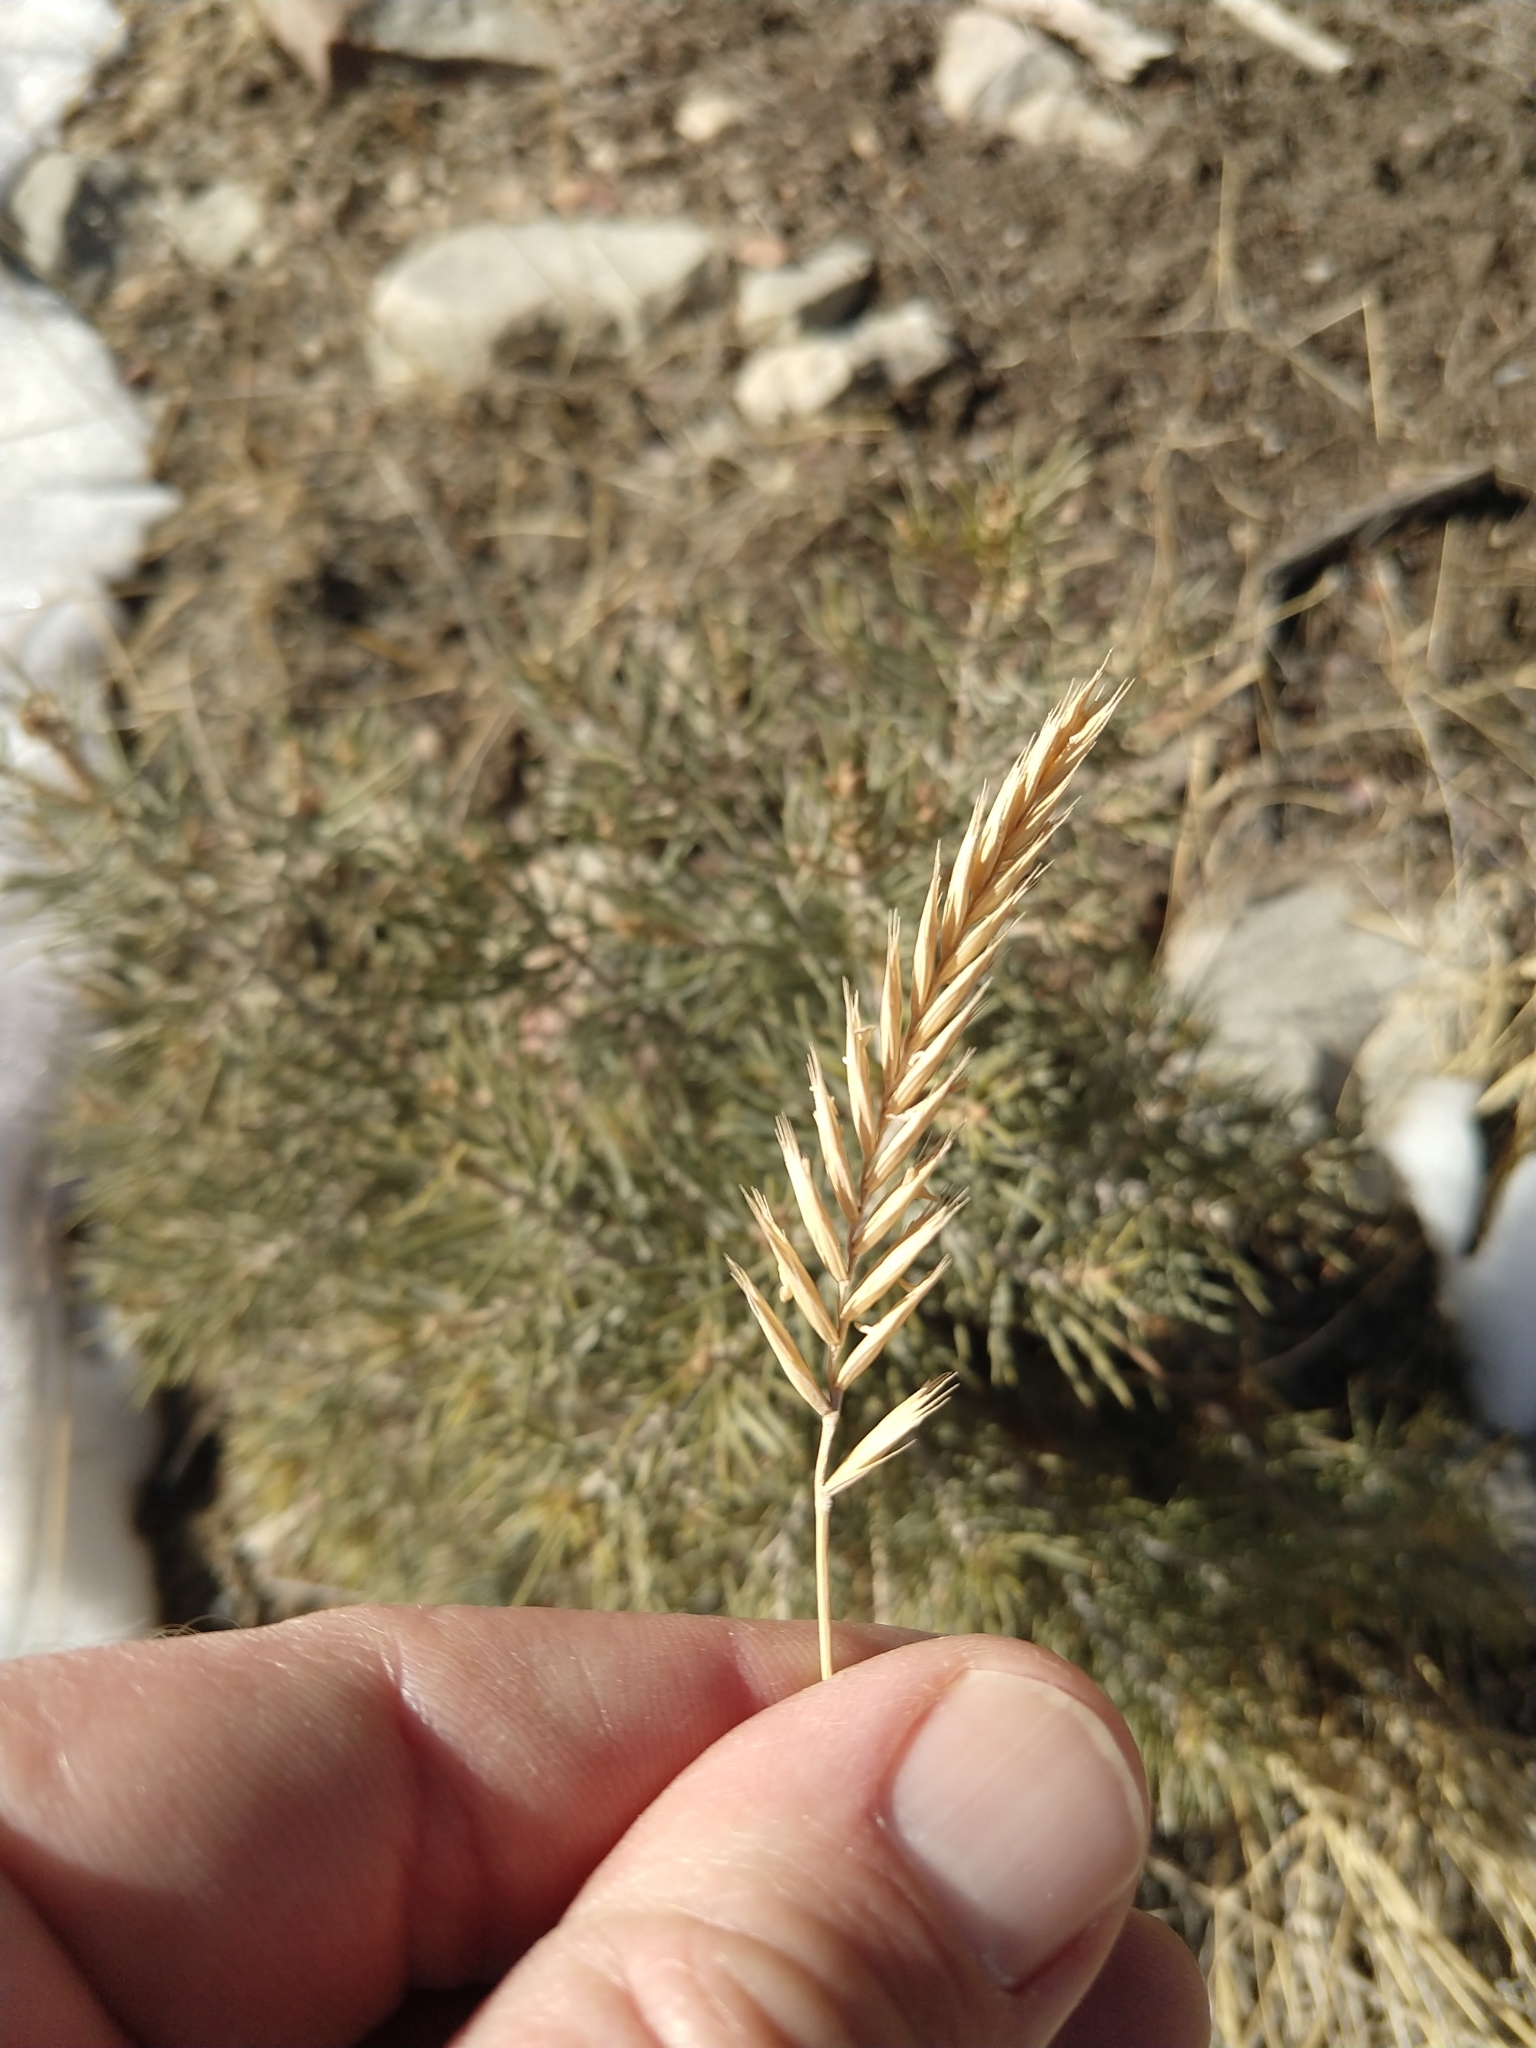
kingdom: Plantae
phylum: Tracheophyta
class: Liliopsida
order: Poales
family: Poaceae
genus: Agropyron
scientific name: Agropyron cristatum
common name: Crested wheatgrass
